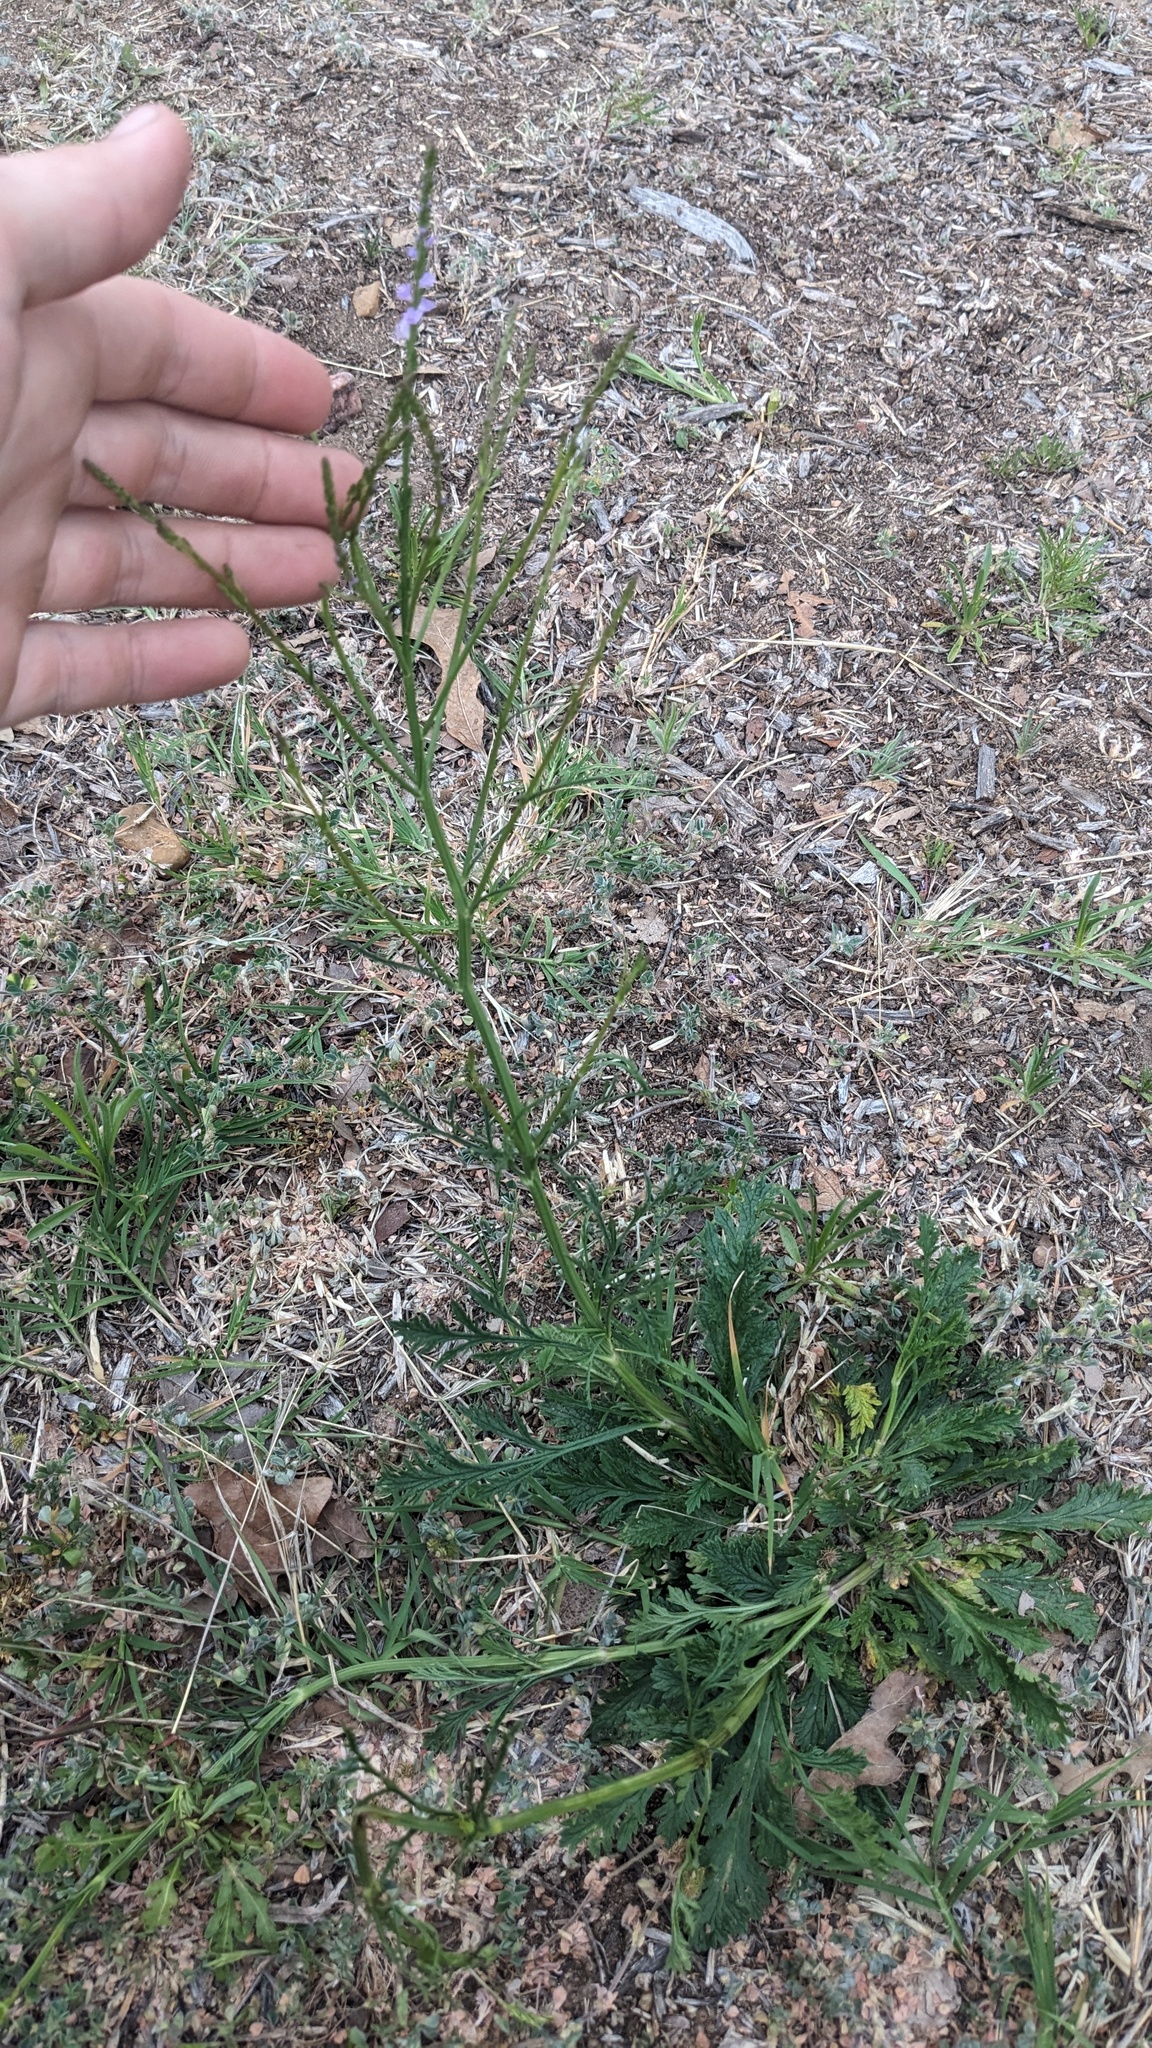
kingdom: Plantae
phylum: Tracheophyta
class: Magnoliopsida
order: Lamiales
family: Verbenaceae
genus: Verbena
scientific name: Verbena halei
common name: Texas vervain
